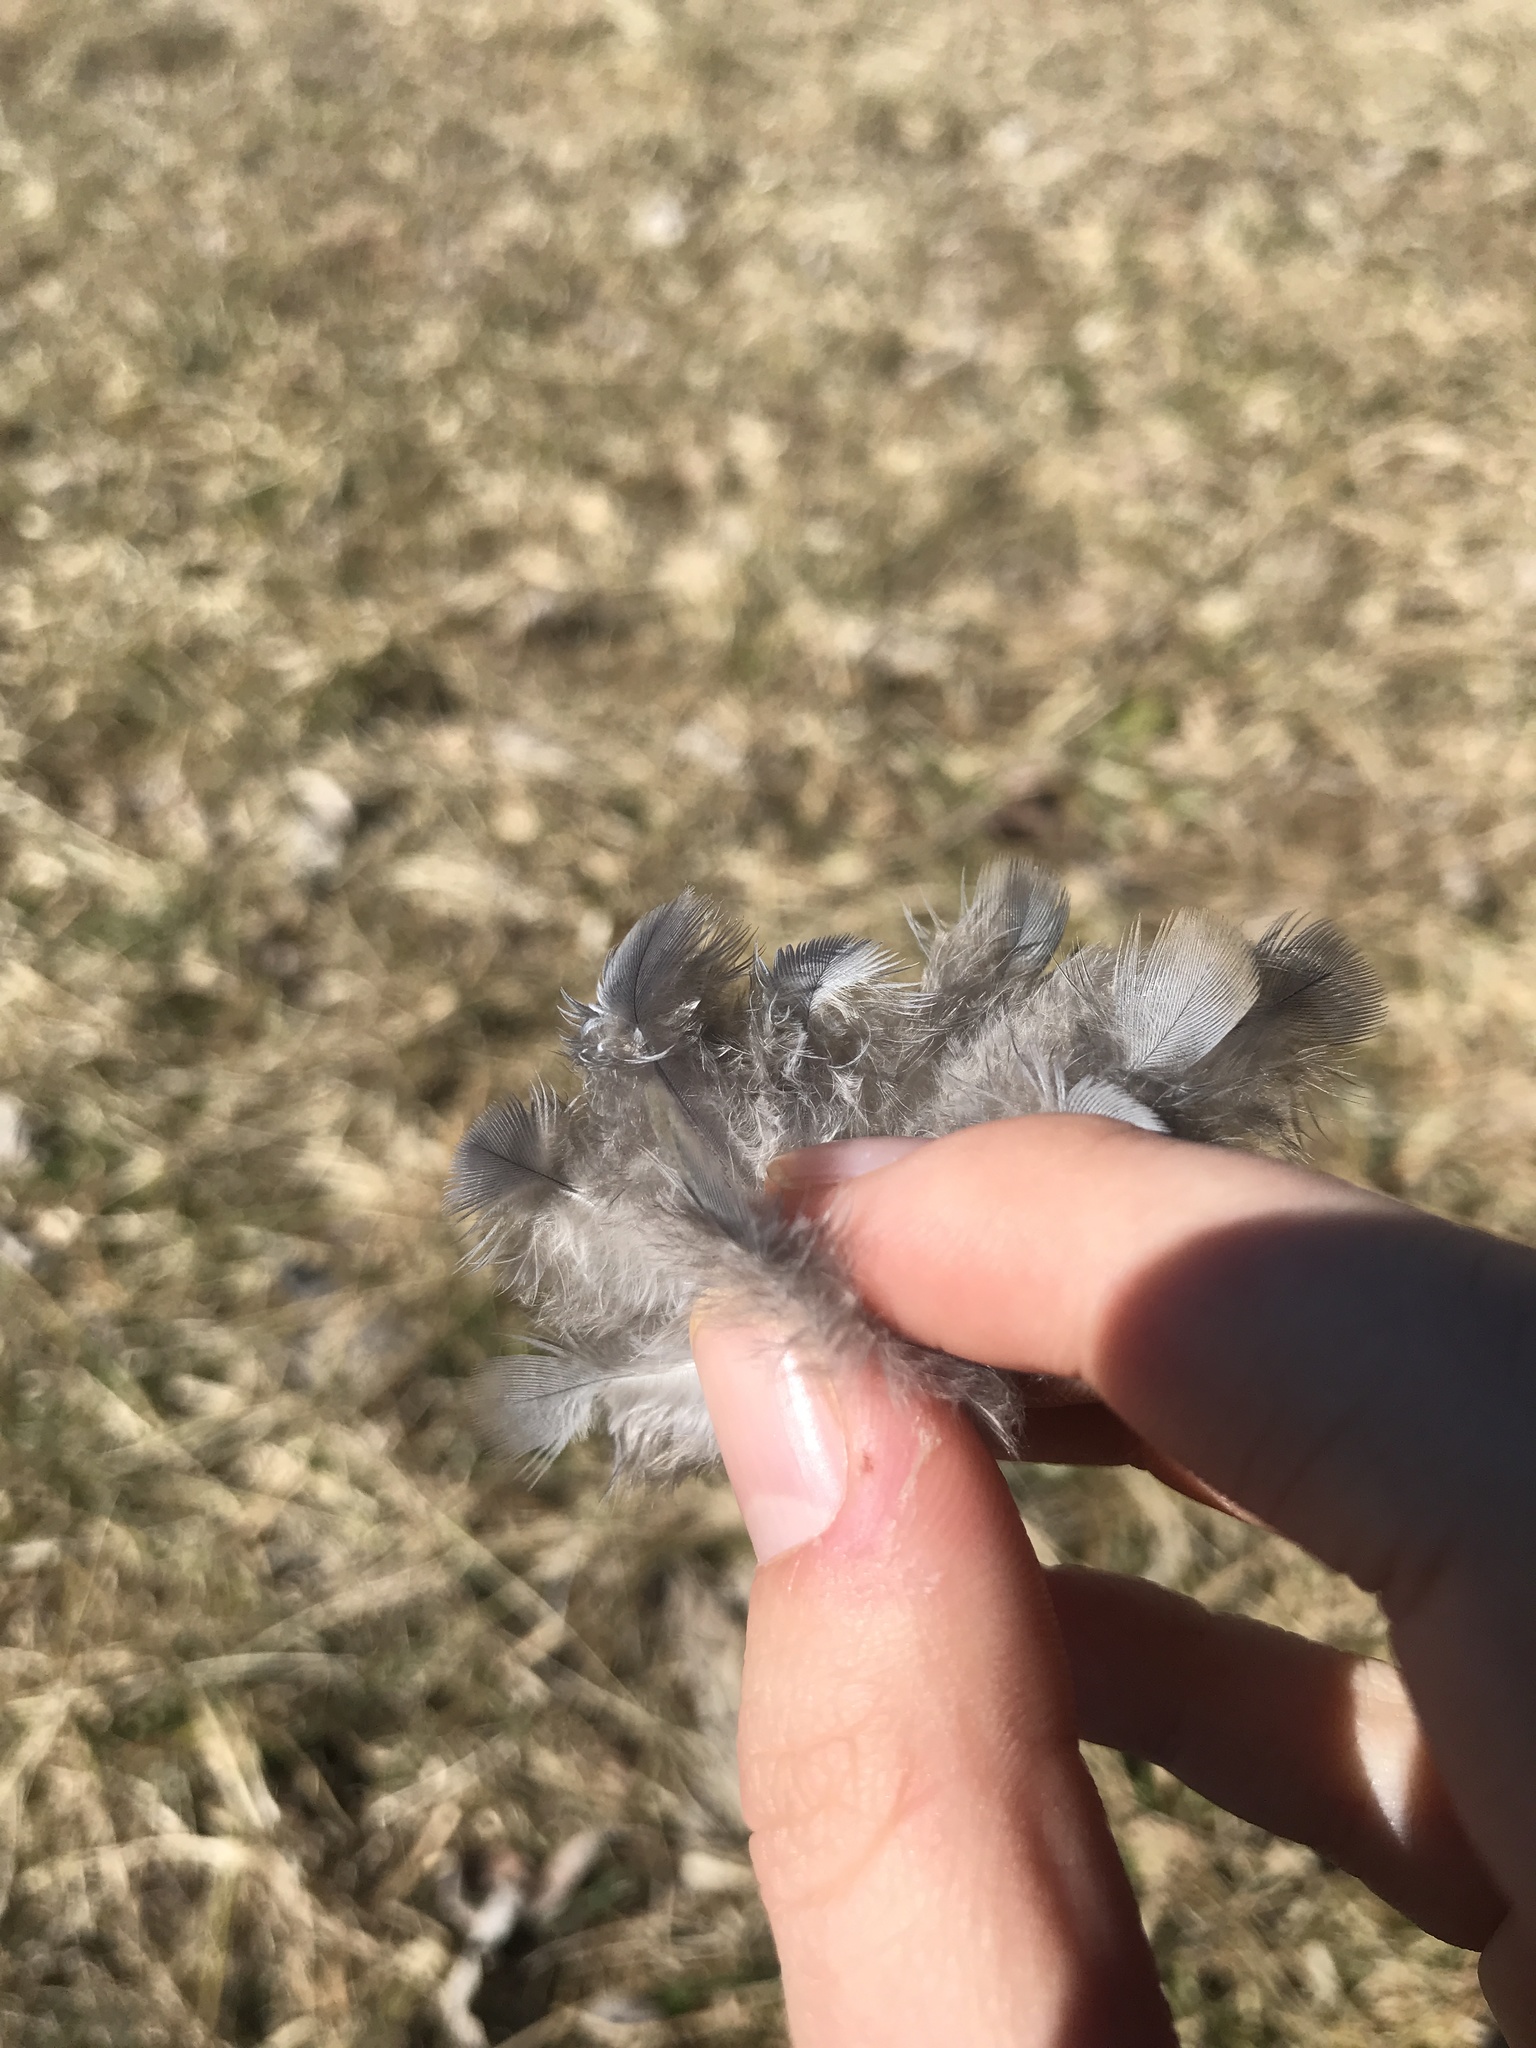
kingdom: Animalia
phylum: Chordata
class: Aves
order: Columbiformes
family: Columbidae
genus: Zenaida
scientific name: Zenaida macroura
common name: Mourning dove
